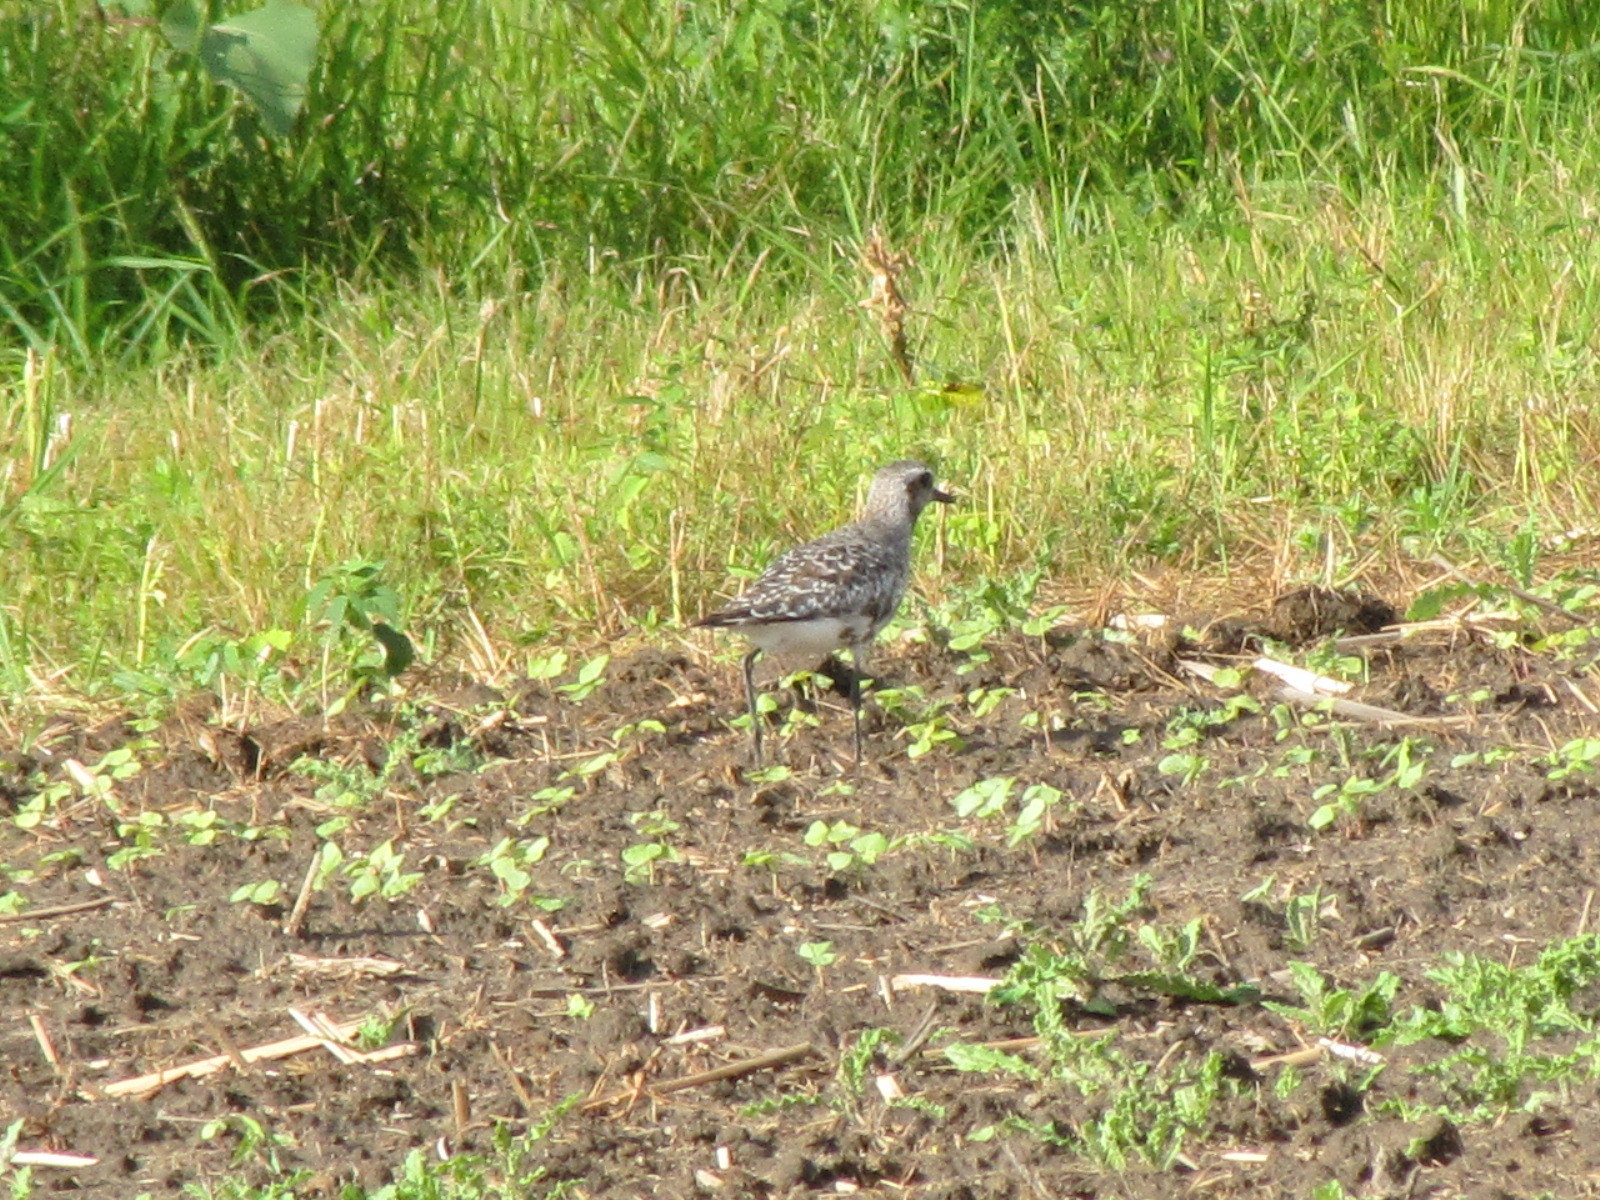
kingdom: Animalia
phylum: Chordata
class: Aves
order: Charadriiformes
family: Charadriidae
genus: Pluvialis
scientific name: Pluvialis squatarola
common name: Grey plover
